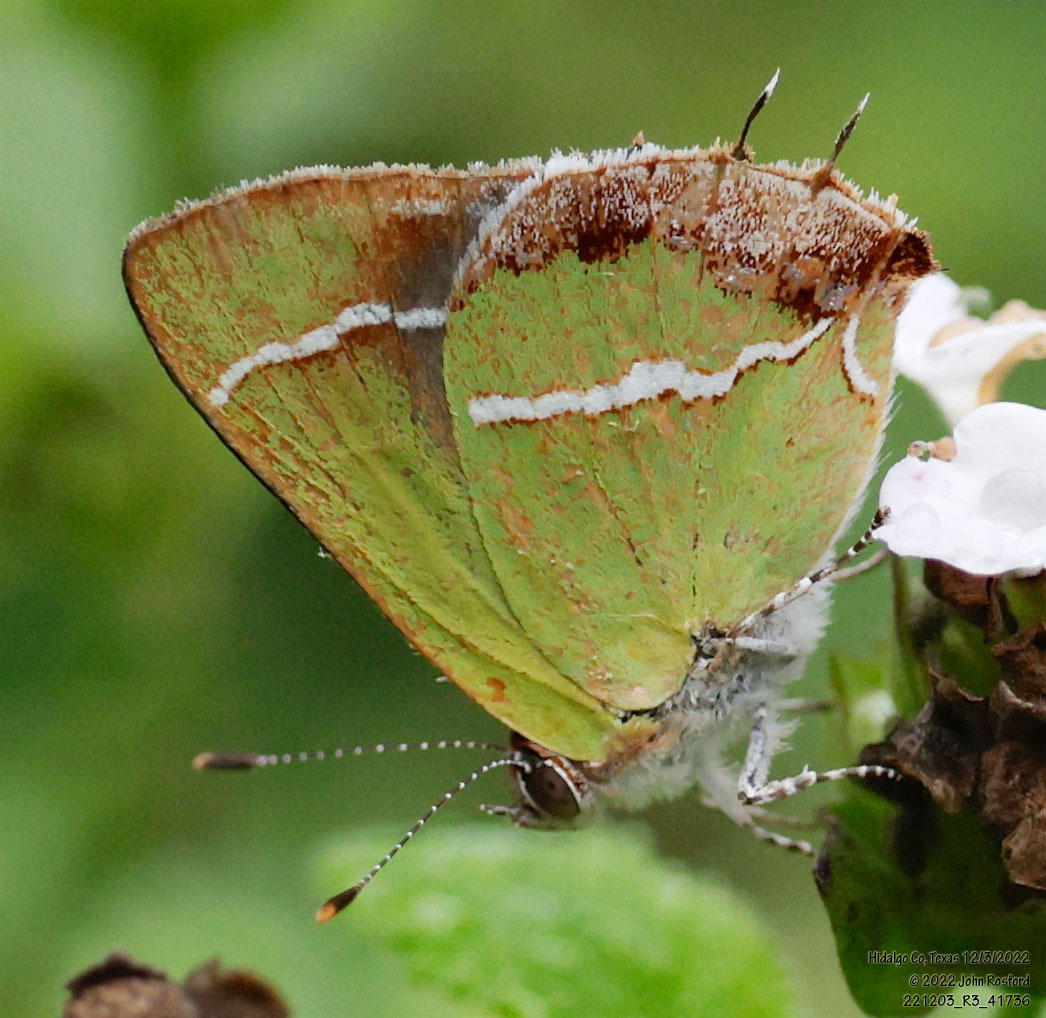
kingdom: Animalia
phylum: Arthropoda
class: Insecta
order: Lepidoptera
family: Lycaenidae
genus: Chlorostrymon
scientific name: Chlorostrymon simaethis
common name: Silver-banded hairstreak
